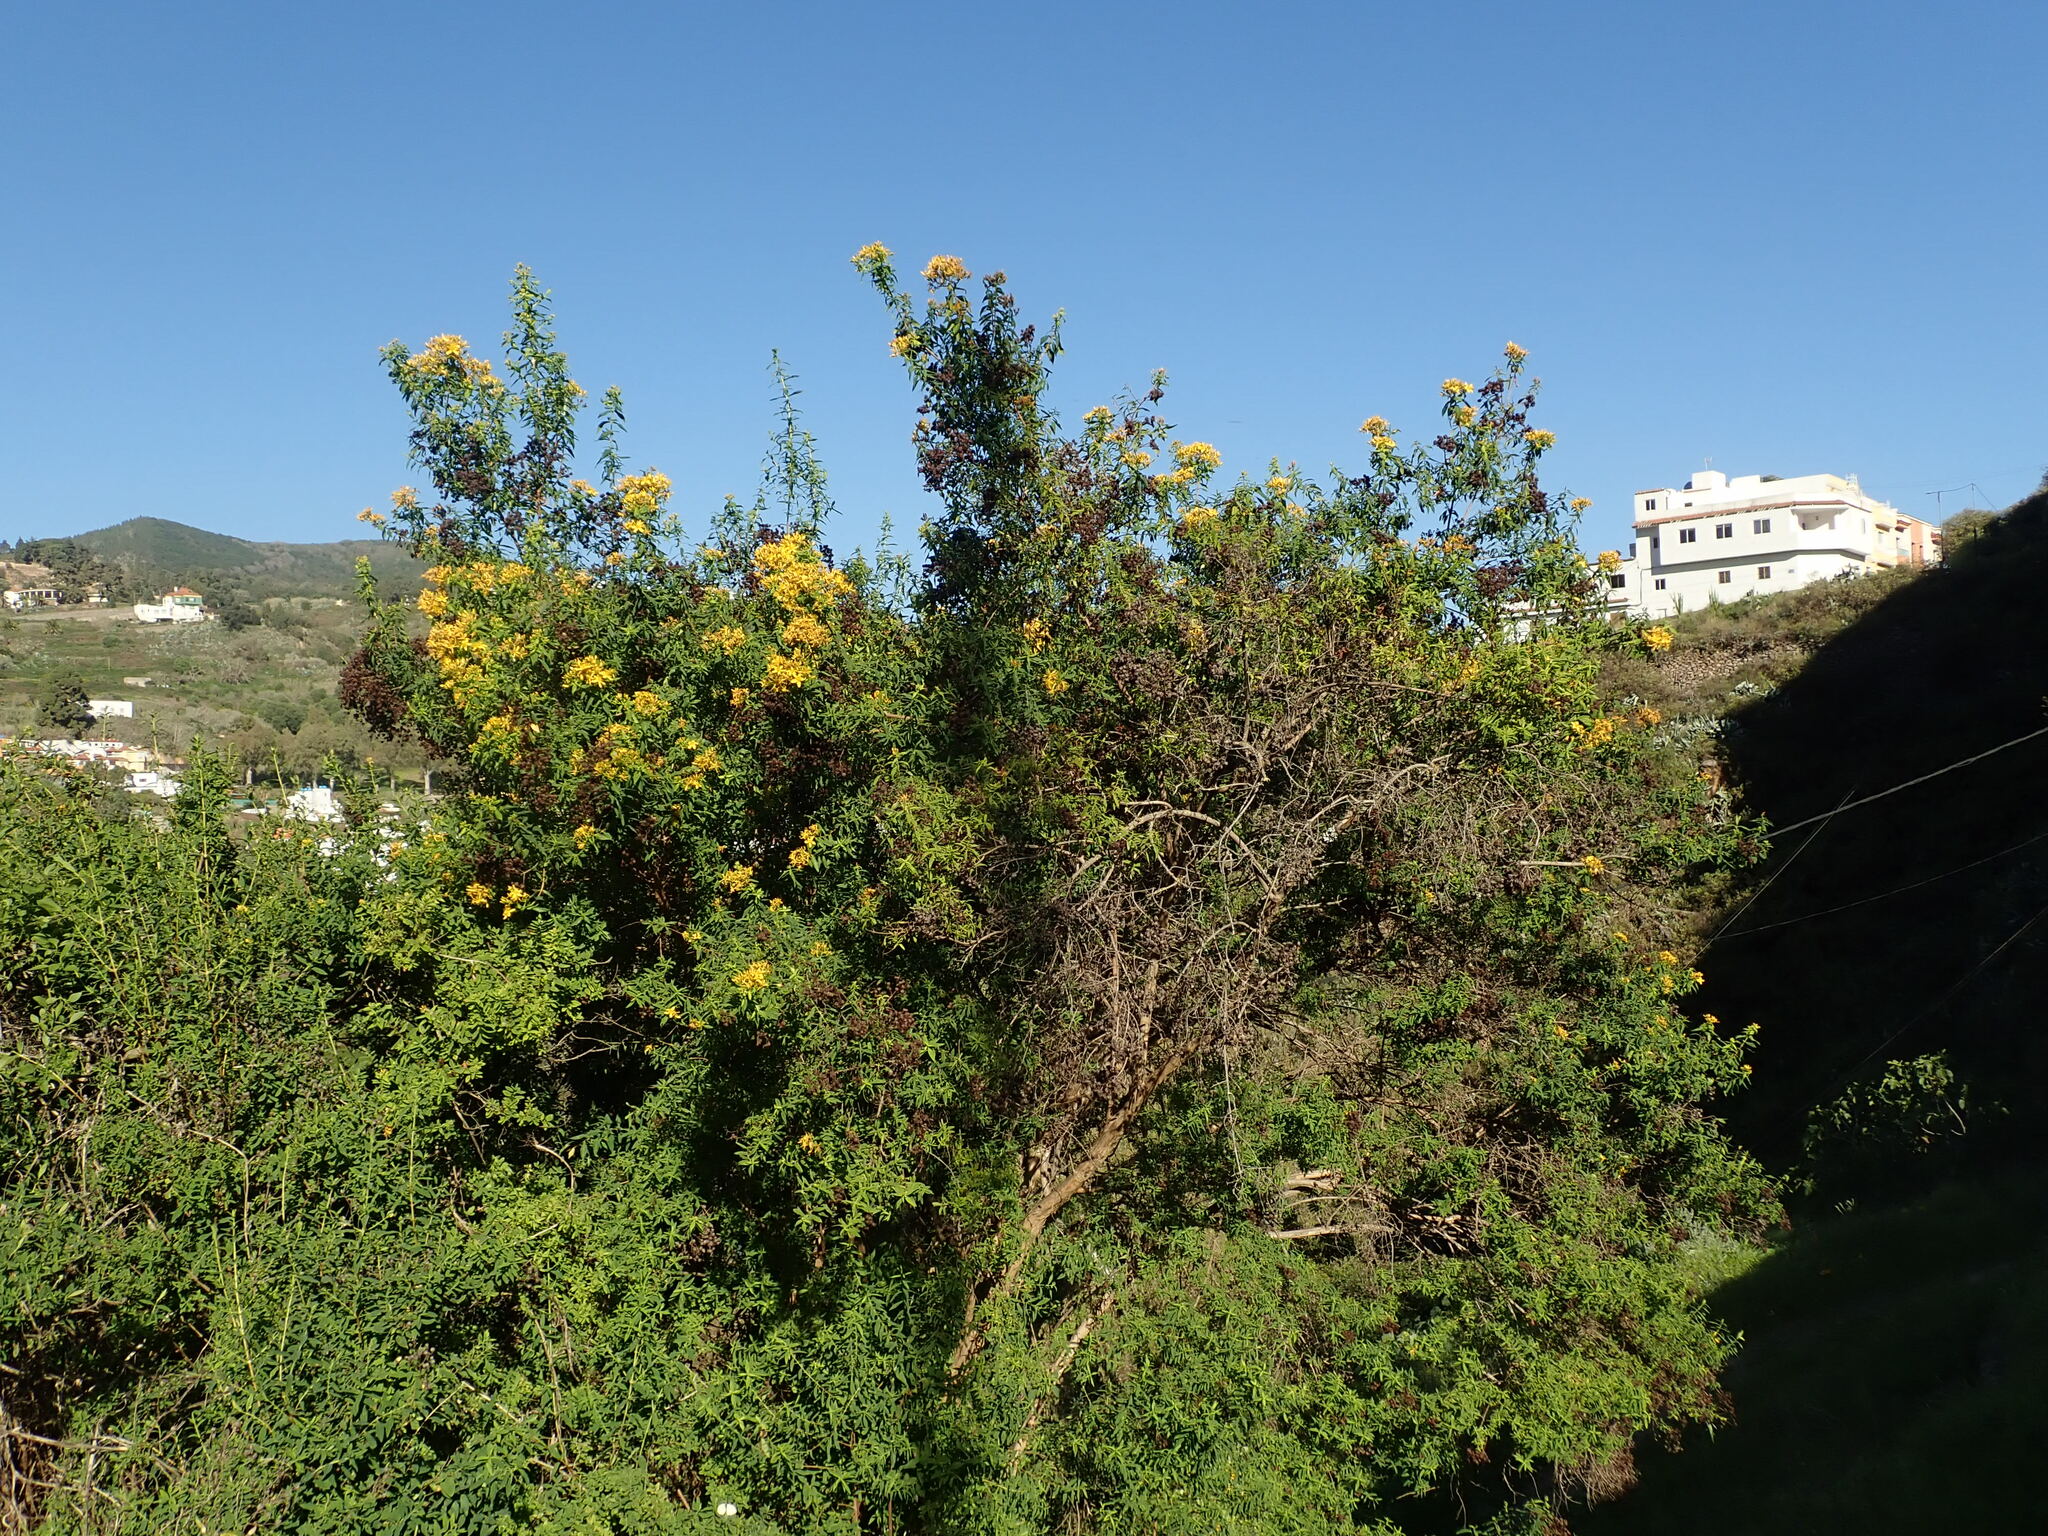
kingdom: Plantae
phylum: Tracheophyta
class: Magnoliopsida
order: Malpighiales
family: Hypericaceae
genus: Hypericum
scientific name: Hypericum canariense
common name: Canary island st. johnswort
